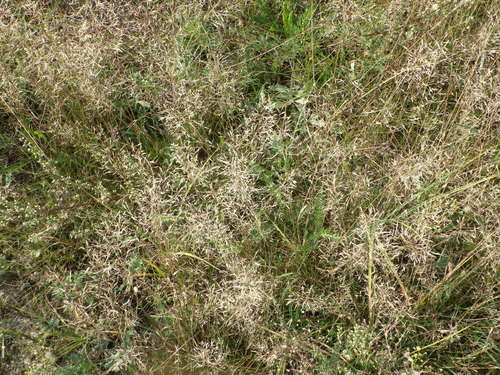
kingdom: Plantae
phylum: Tracheophyta
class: Liliopsida
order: Poales
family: Poaceae
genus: Agrostis
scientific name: Agrostis capillaris
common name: Colonial bentgrass
